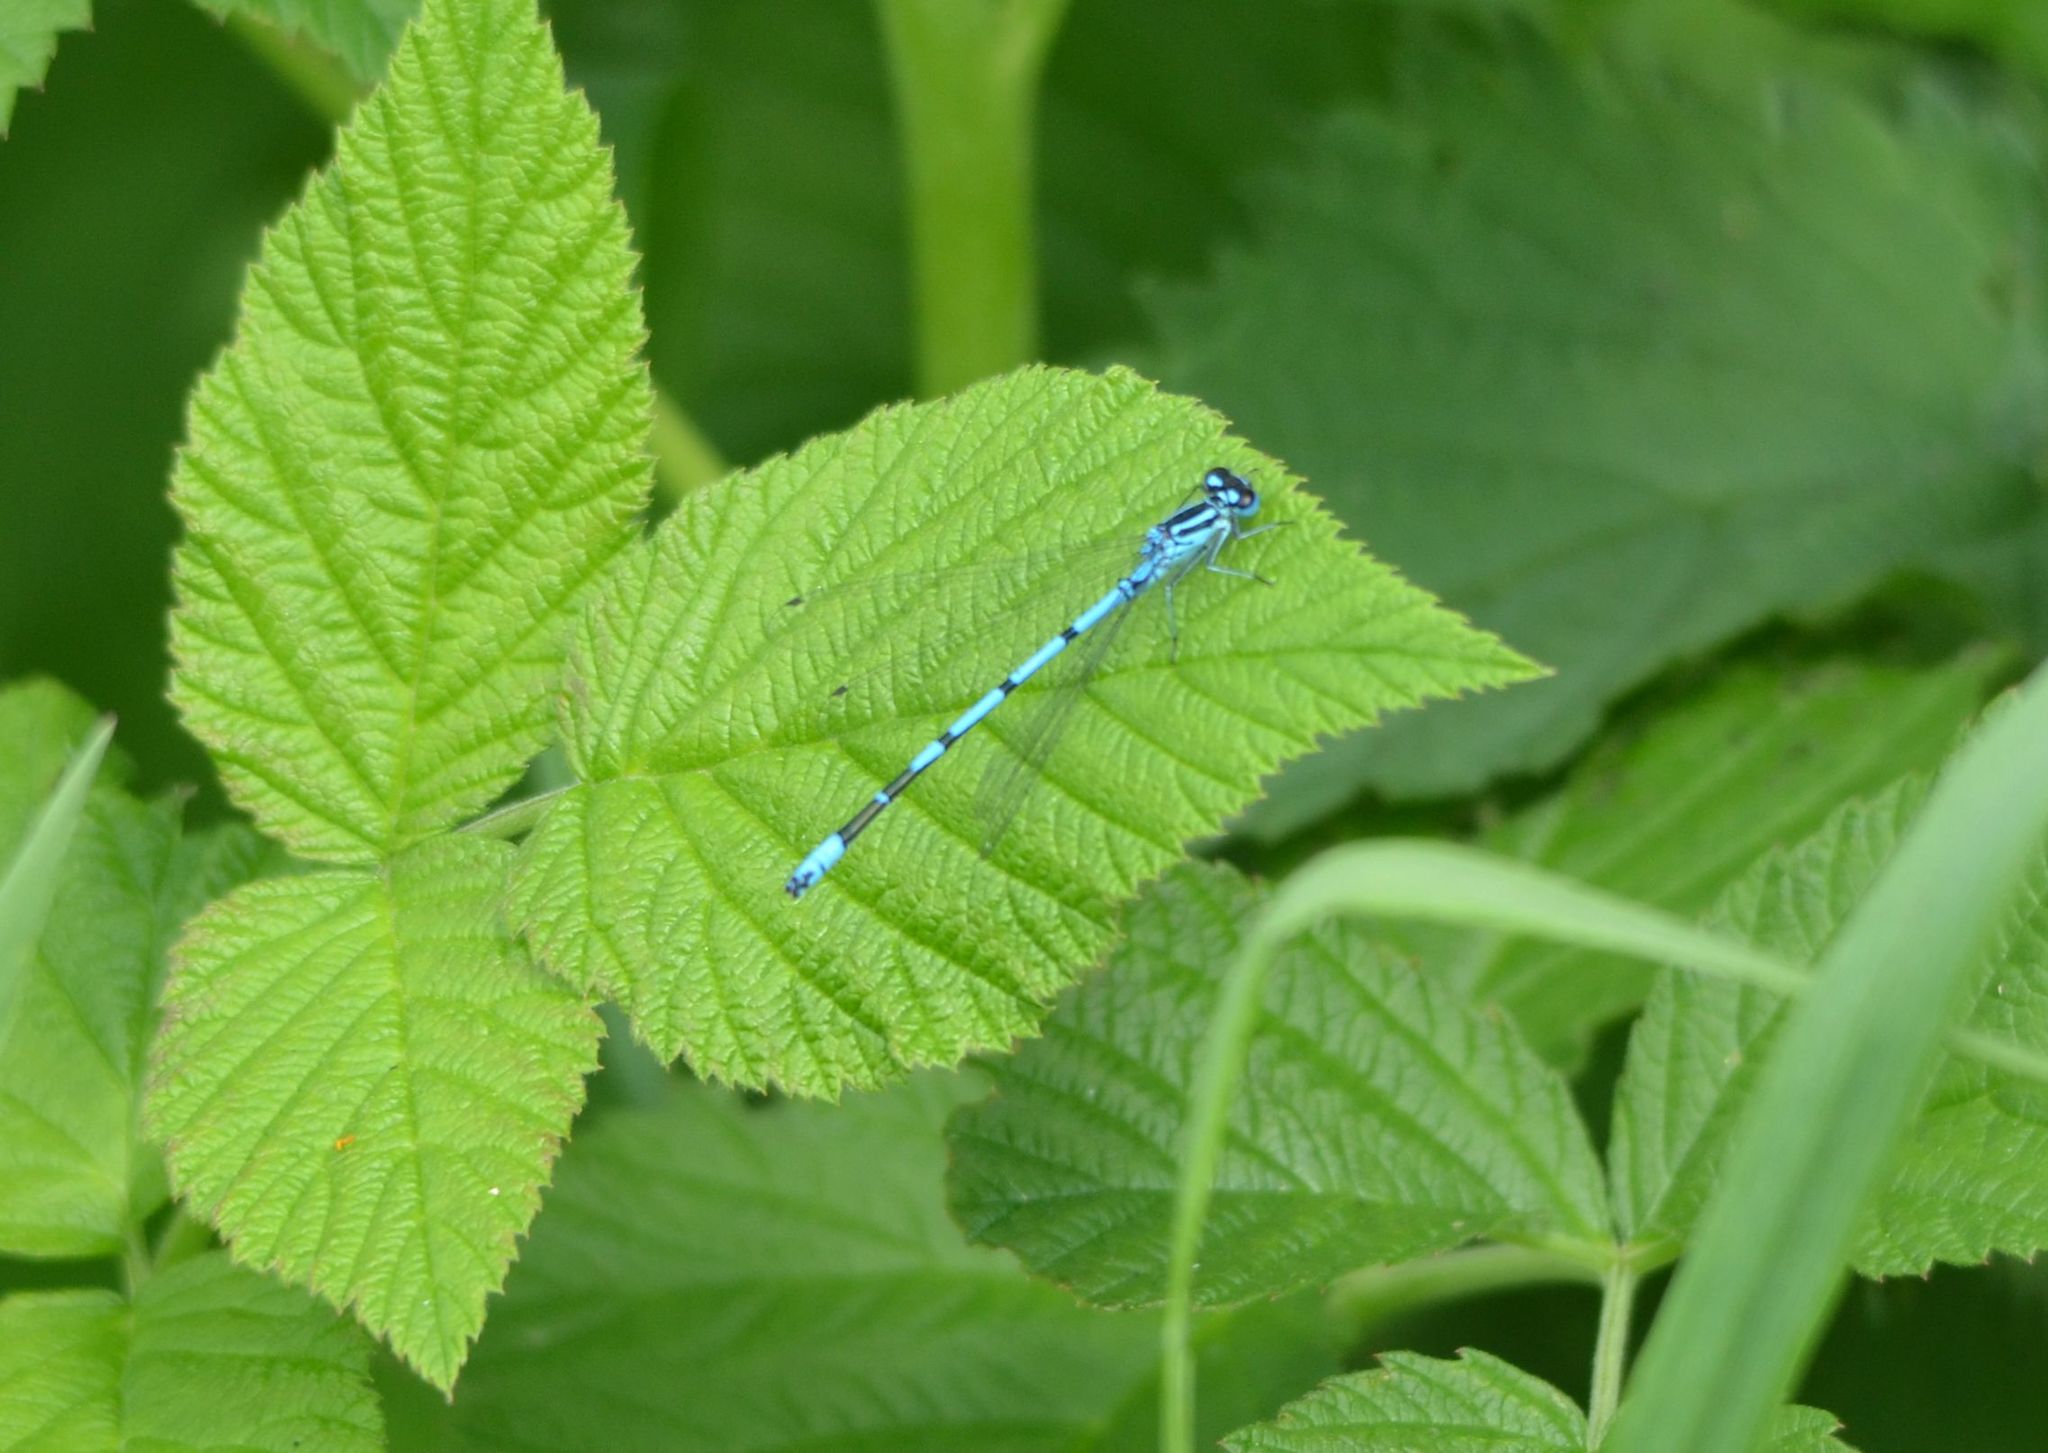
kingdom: Animalia
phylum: Arthropoda
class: Insecta
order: Odonata
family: Coenagrionidae
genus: Coenagrion
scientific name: Coenagrion puella
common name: Azure damselfly
